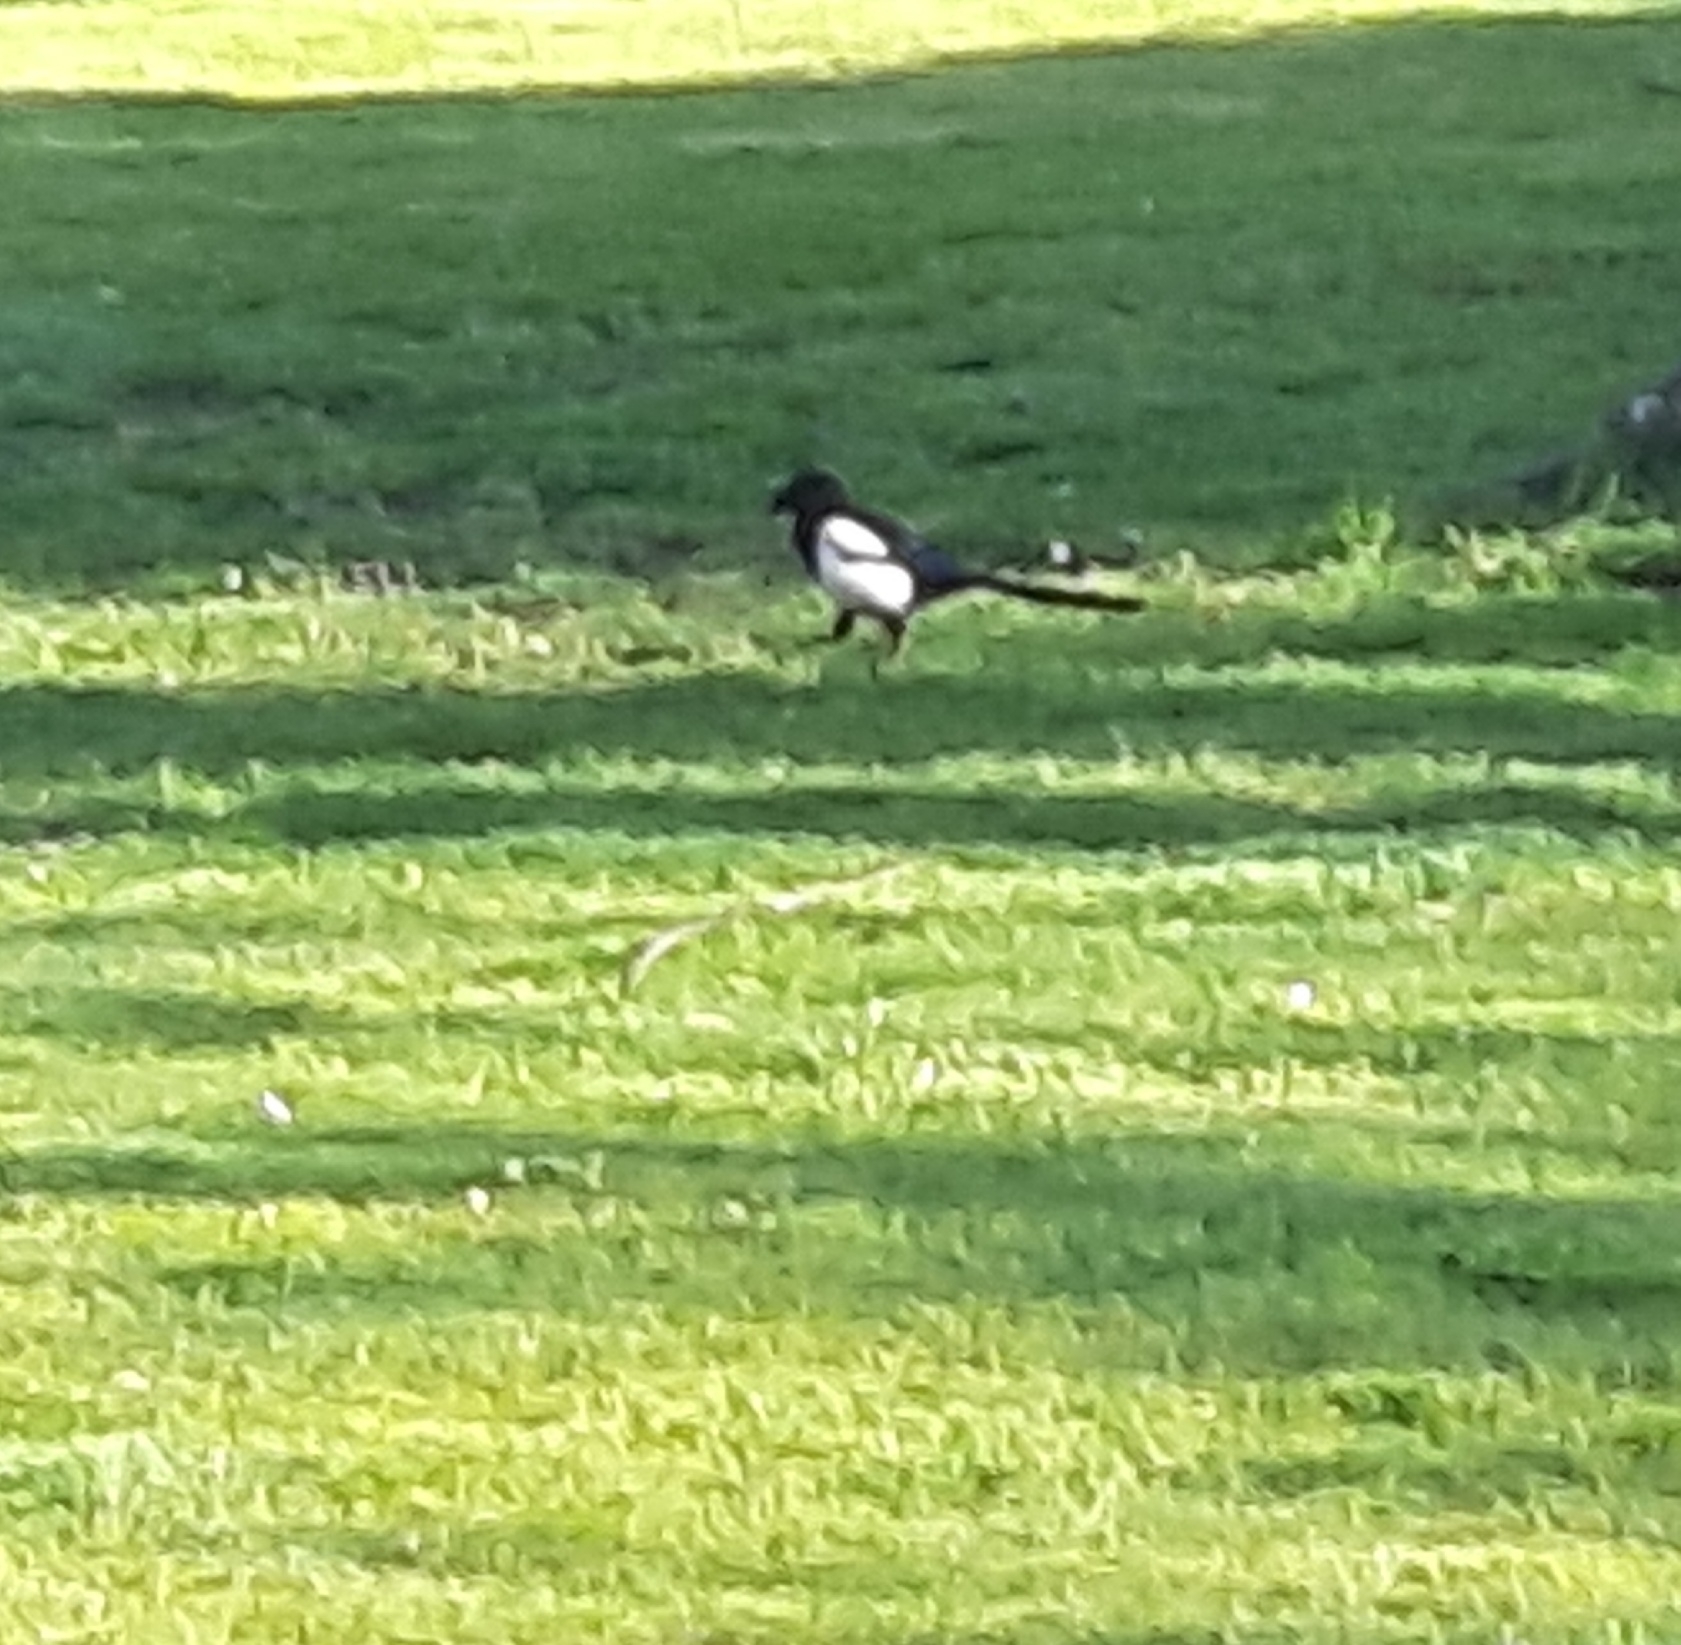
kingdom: Animalia
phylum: Chordata
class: Aves
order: Passeriformes
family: Corvidae
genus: Pica
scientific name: Pica pica
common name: Eurasian magpie
